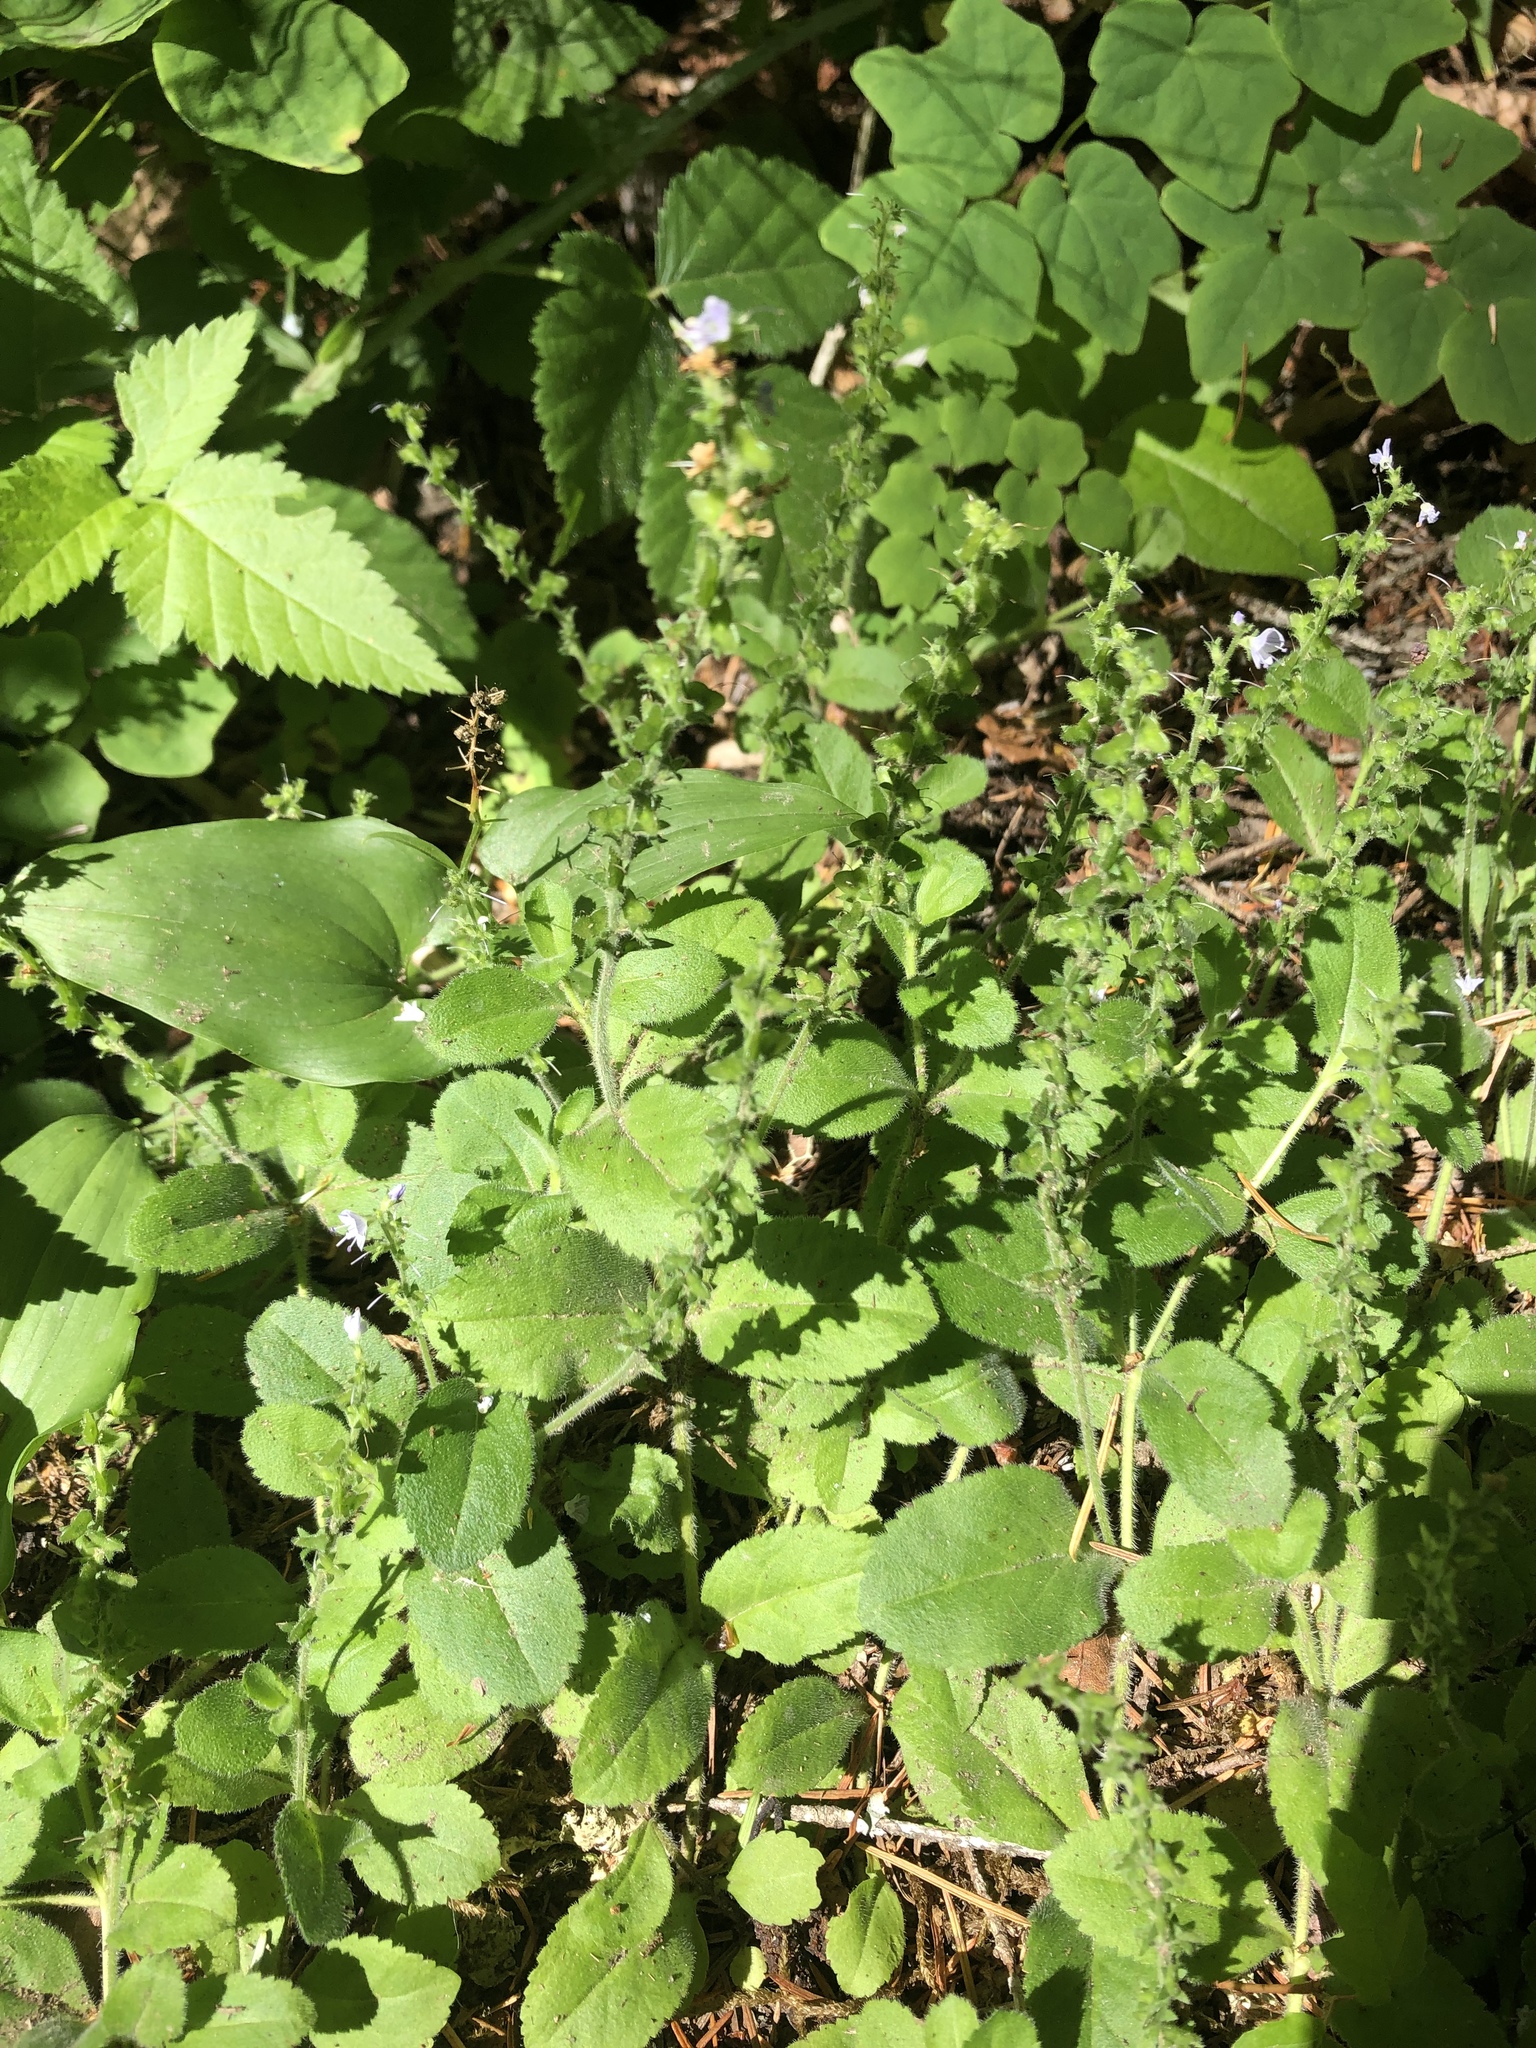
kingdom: Plantae
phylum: Tracheophyta
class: Magnoliopsida
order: Lamiales
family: Plantaginaceae
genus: Veronica
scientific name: Veronica officinalis
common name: Common speedwell
